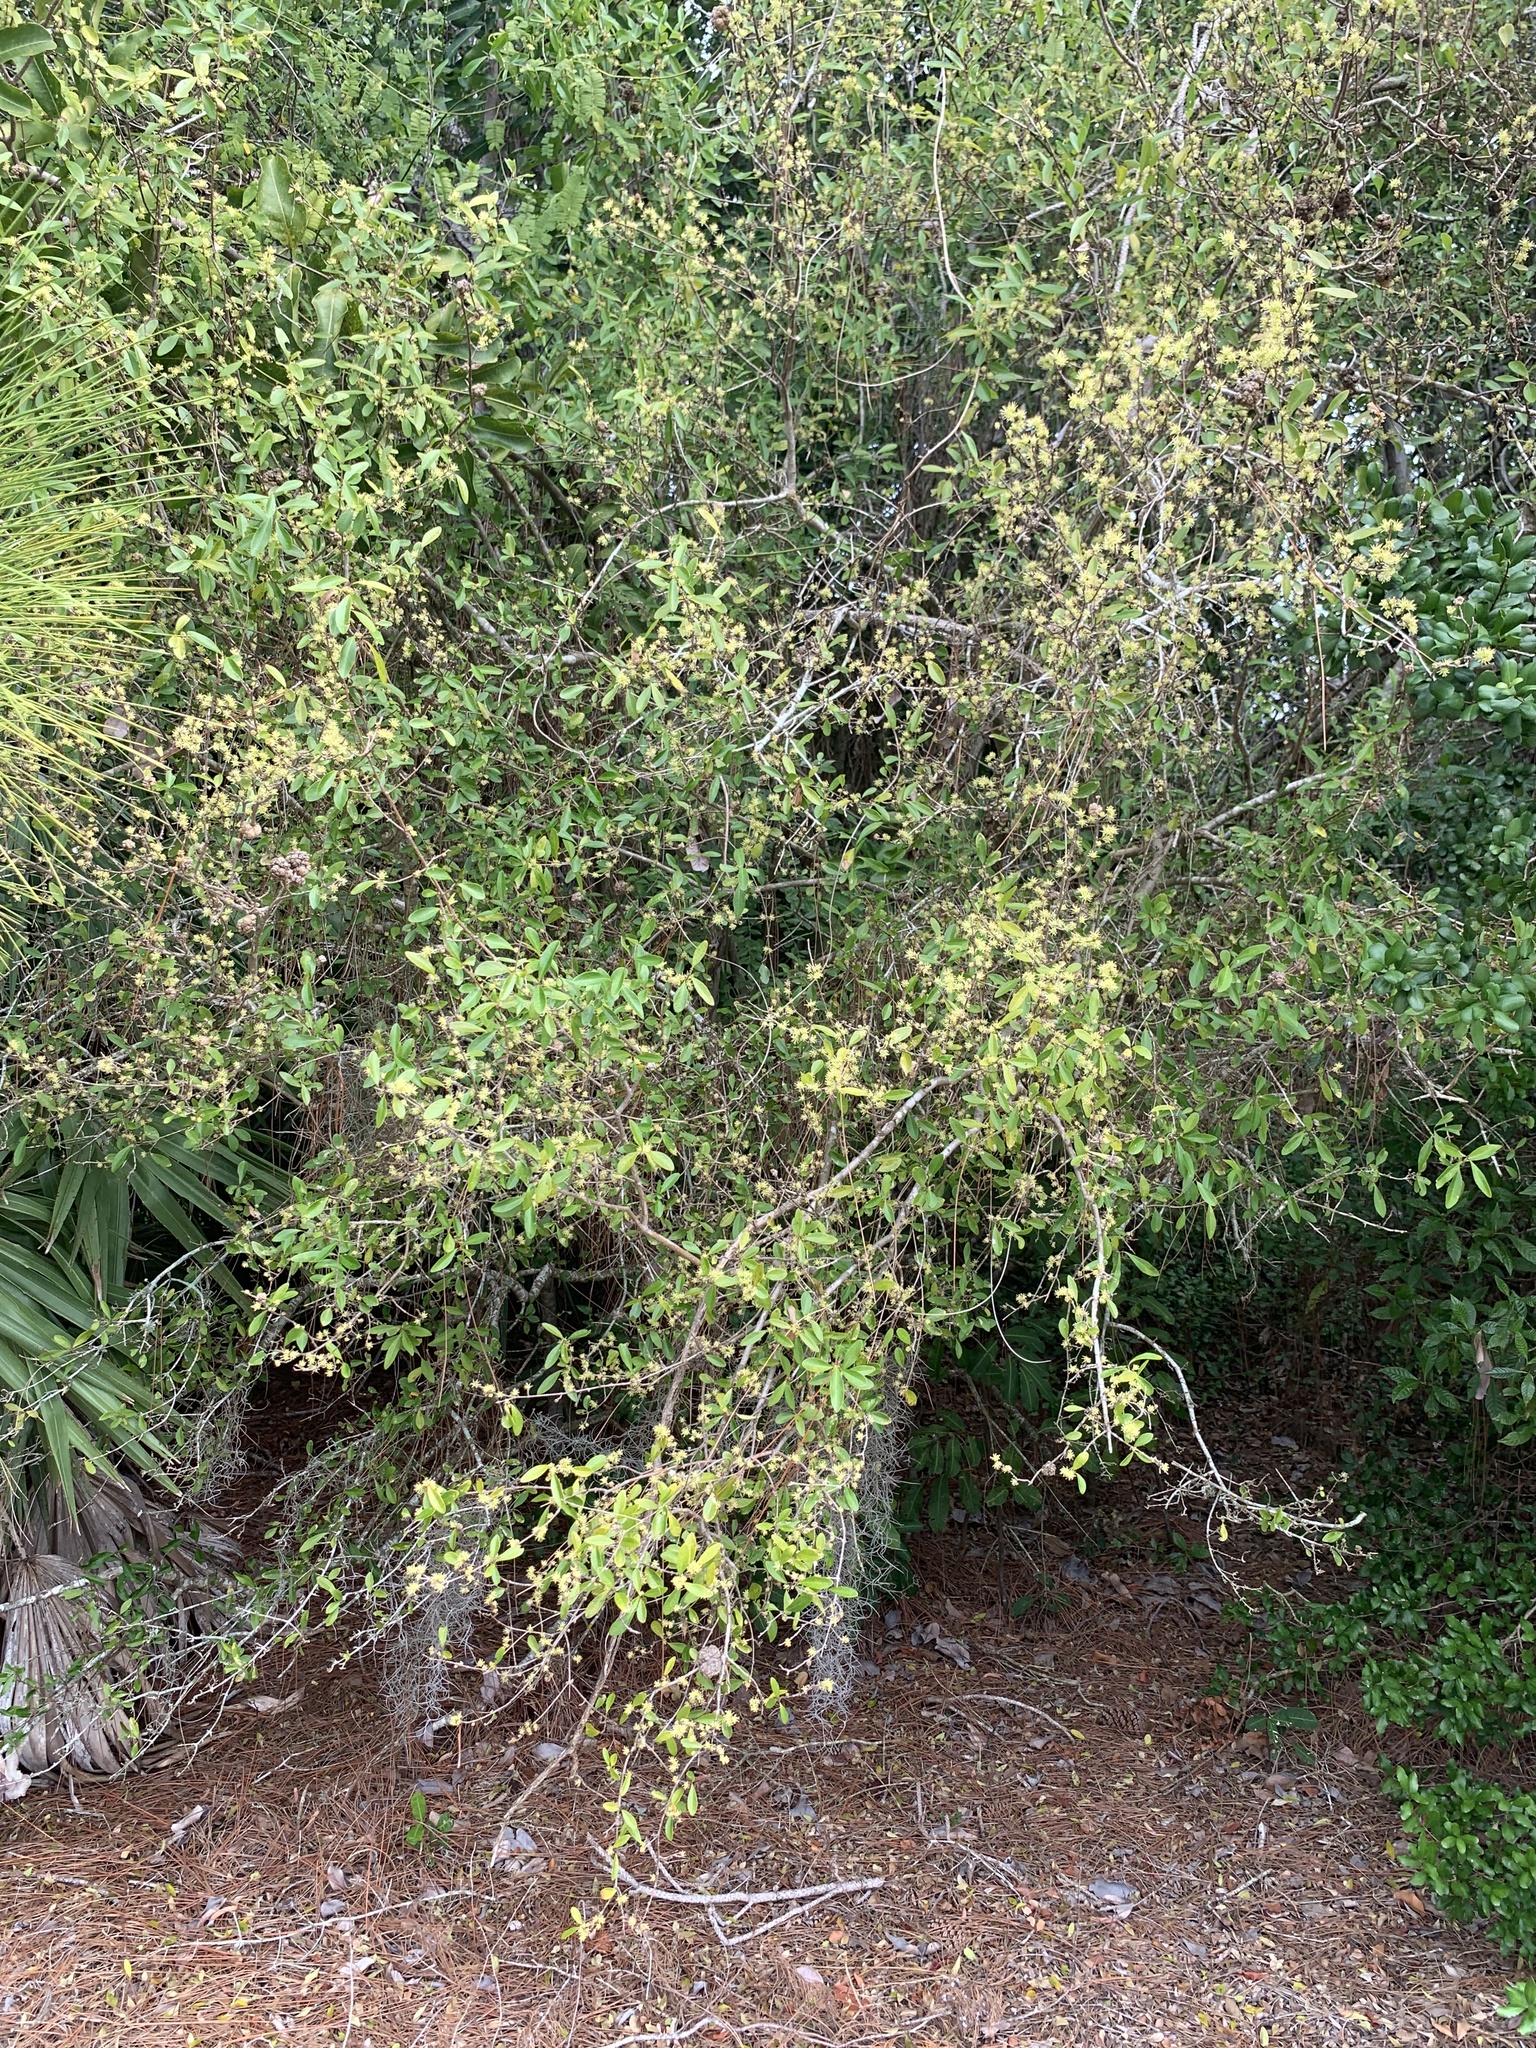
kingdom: Plantae
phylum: Tracheophyta
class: Magnoliopsida
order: Lamiales
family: Oleaceae
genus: Forestiera
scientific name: Forestiera segregata
